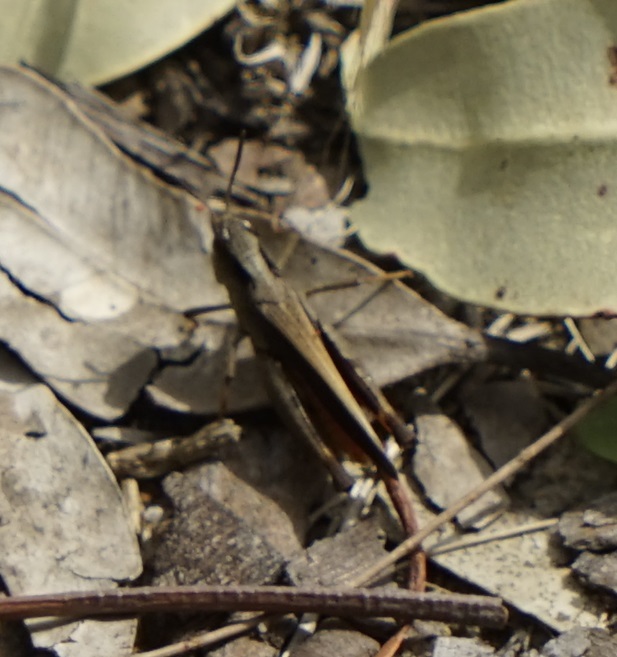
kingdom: Animalia
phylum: Arthropoda
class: Insecta
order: Orthoptera
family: Acrididae
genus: Cryptobothrus
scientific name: Cryptobothrus chrysophorus
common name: Golden bandwing
